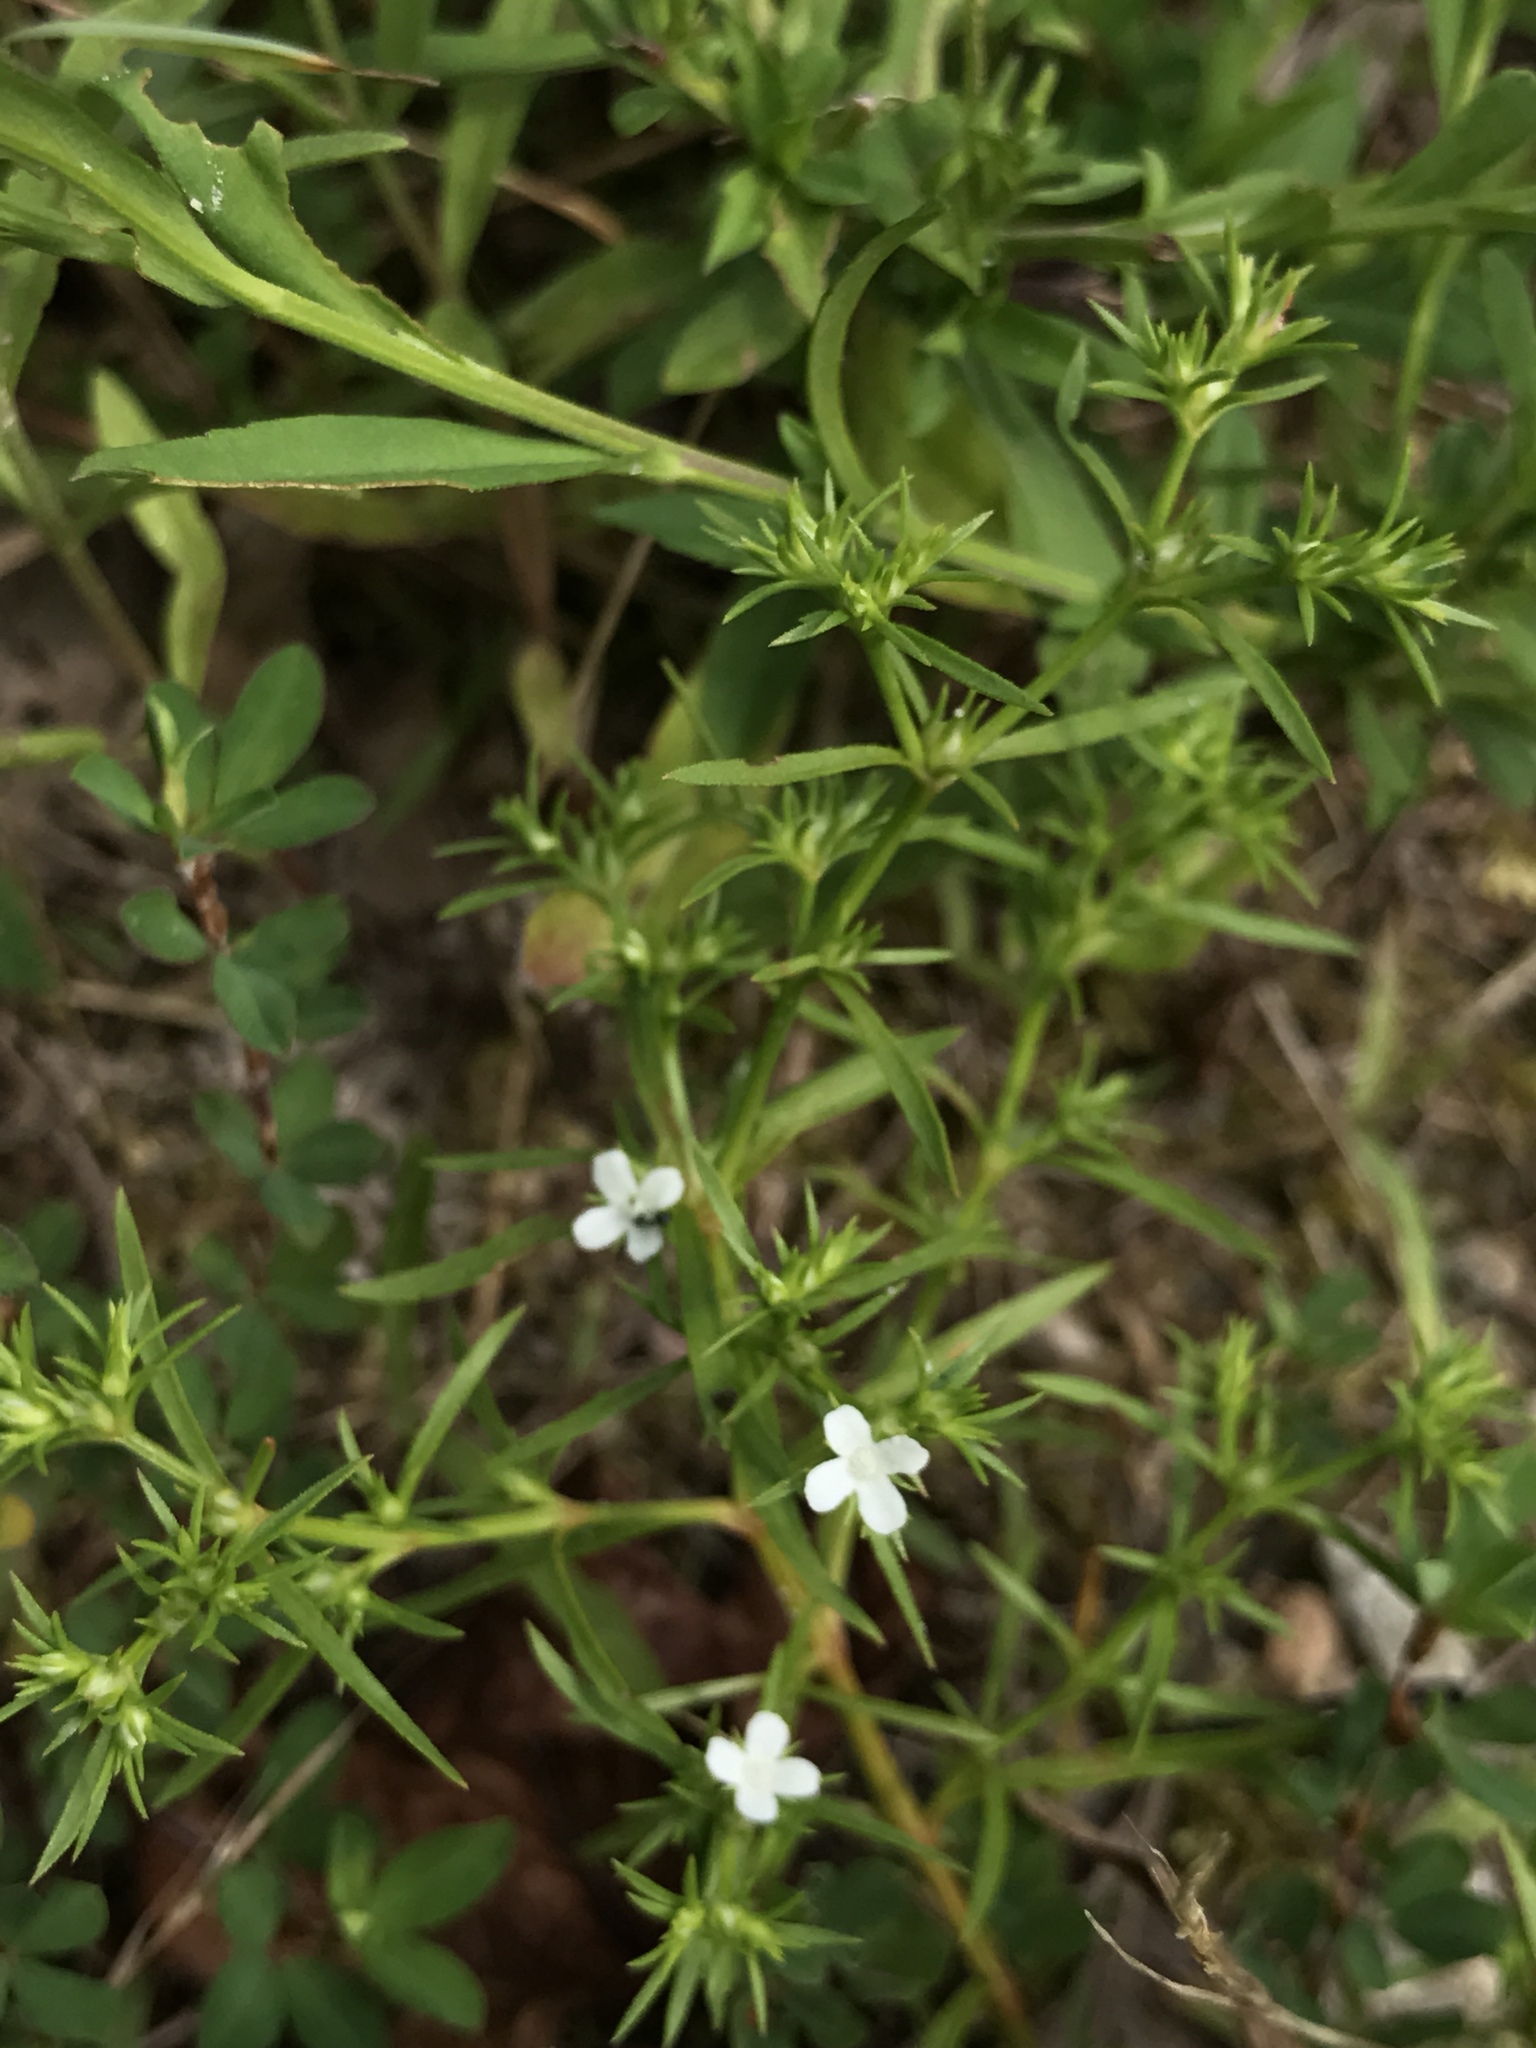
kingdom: Plantae
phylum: Tracheophyta
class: Magnoliopsida
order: Lamiales
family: Tetrachondraceae
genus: Polypremum
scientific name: Polypremum procumbens
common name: Juniper-leaf
